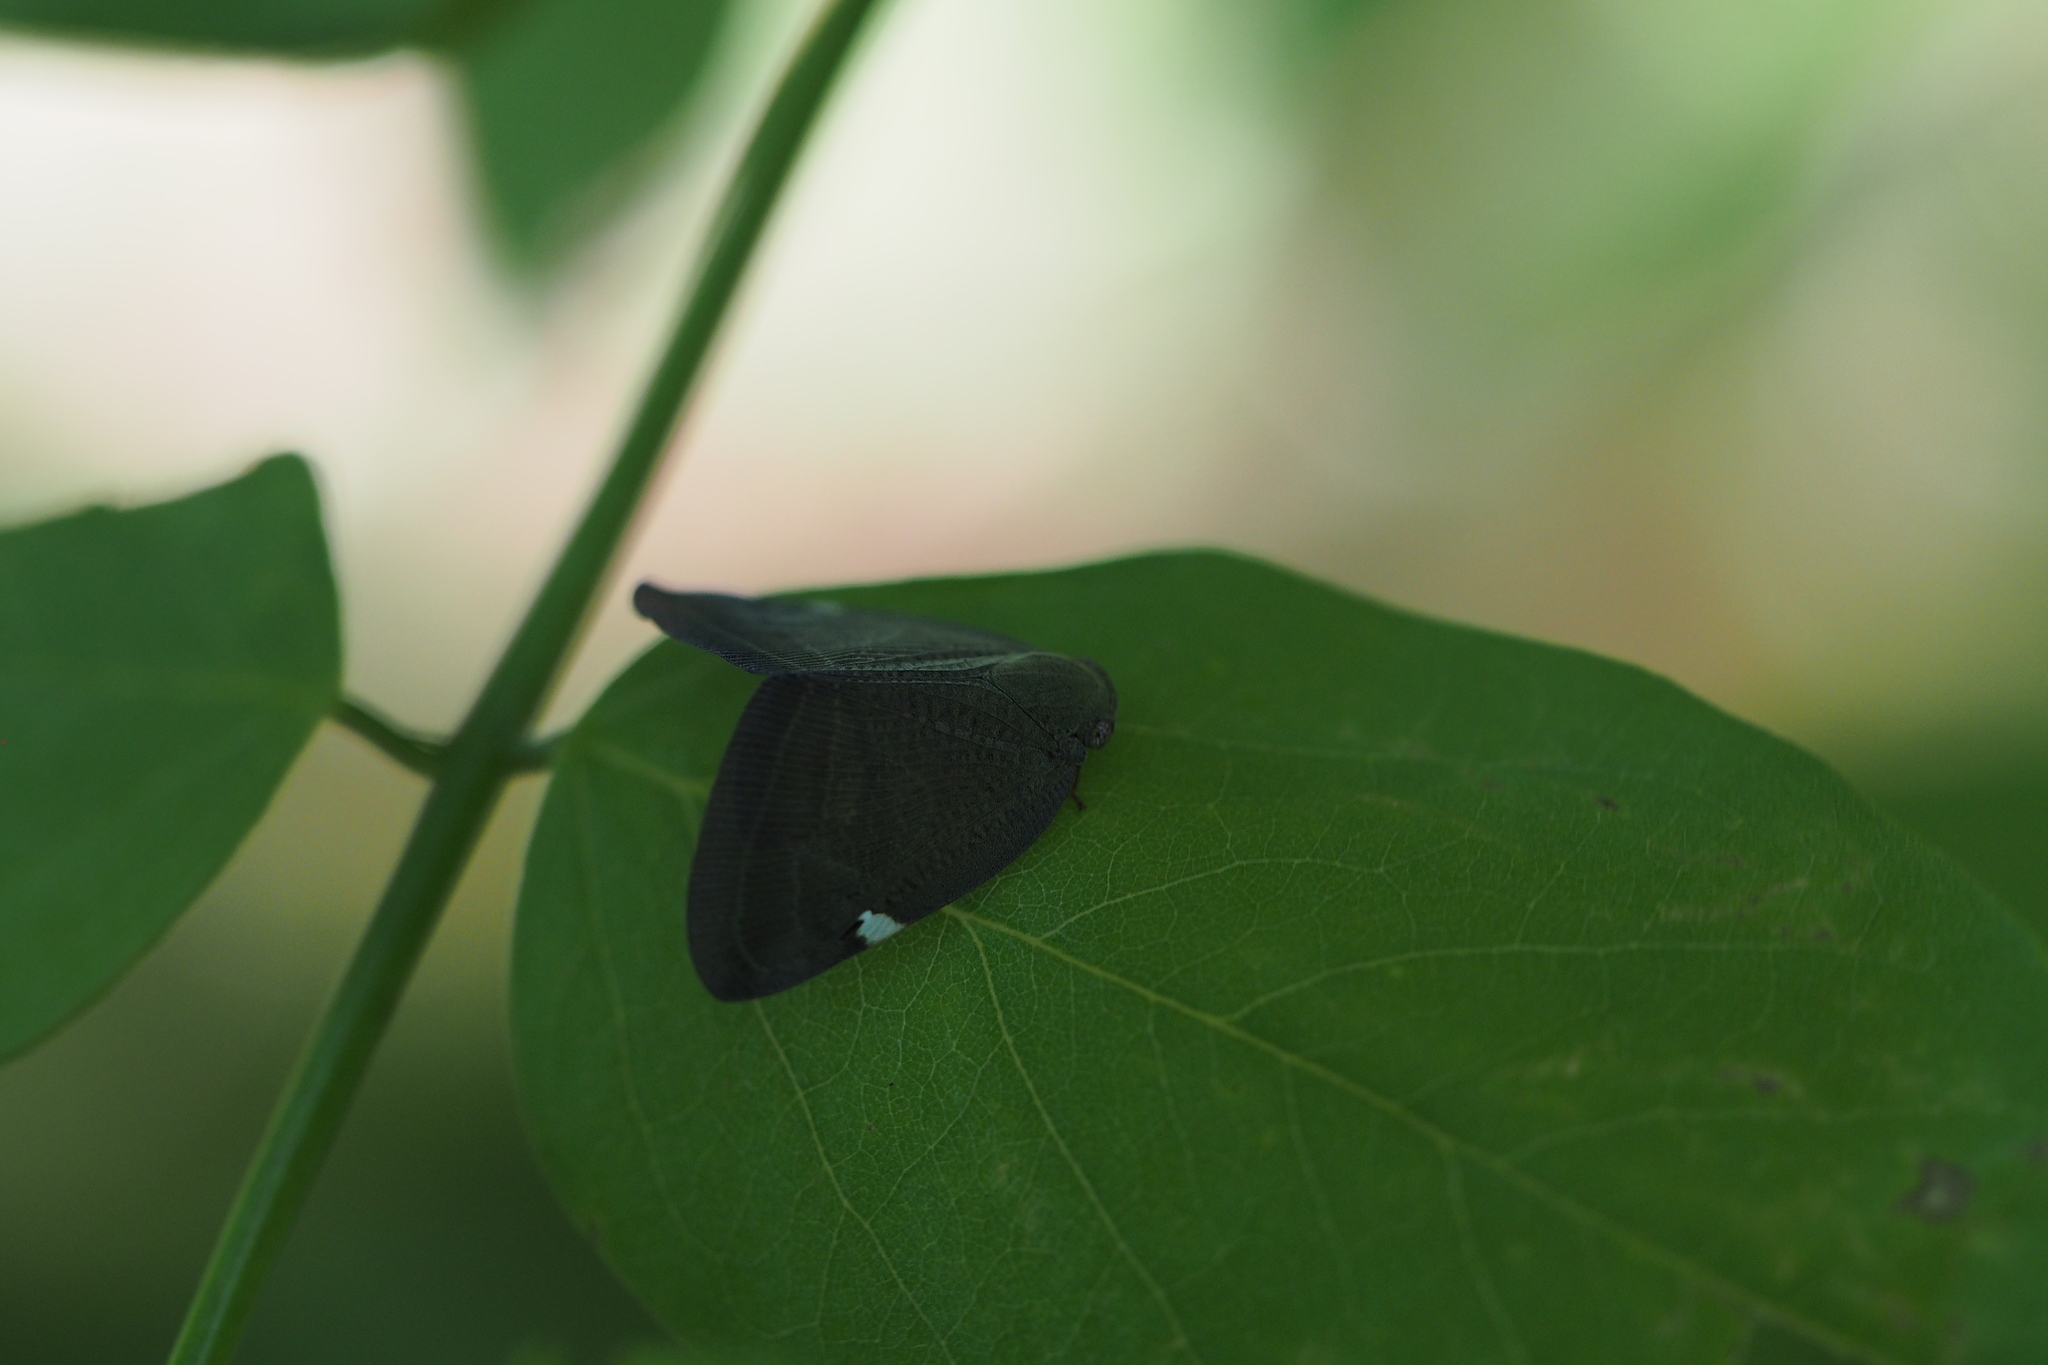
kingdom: Animalia
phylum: Arthropoda
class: Insecta
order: Hemiptera
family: Ricaniidae
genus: Pochazia
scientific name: Pochazia albomaculata
